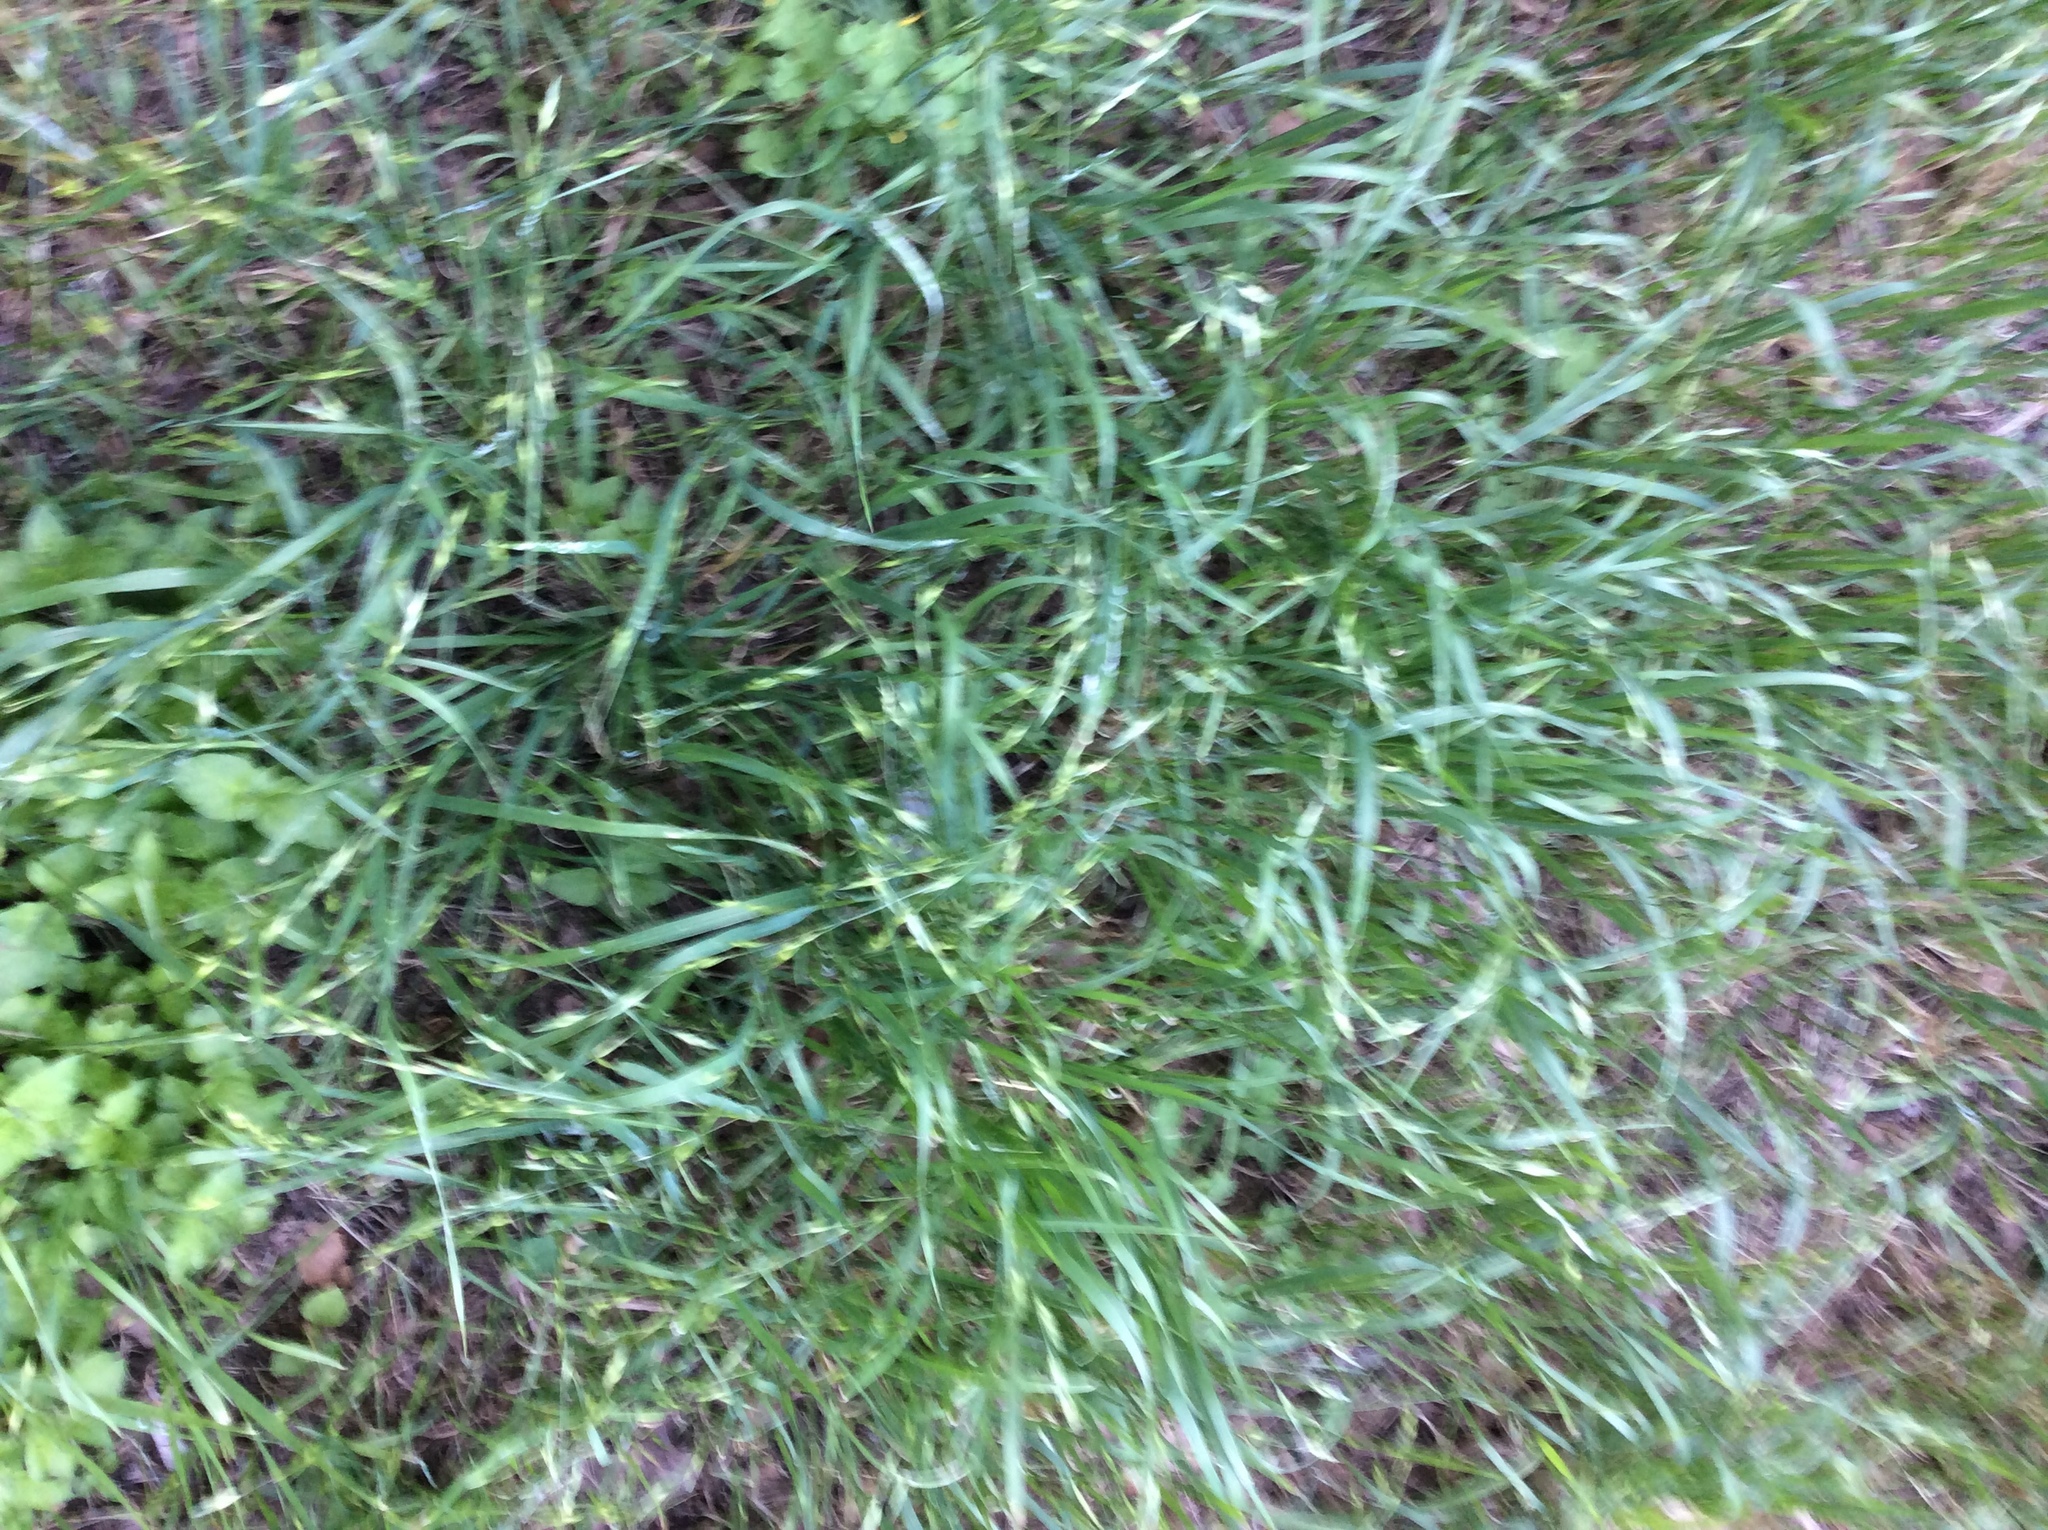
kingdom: Plantae
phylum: Tracheophyta
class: Liliopsida
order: Poales
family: Poaceae
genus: Bromus
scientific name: Bromus catharticus
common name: Rescuegrass
